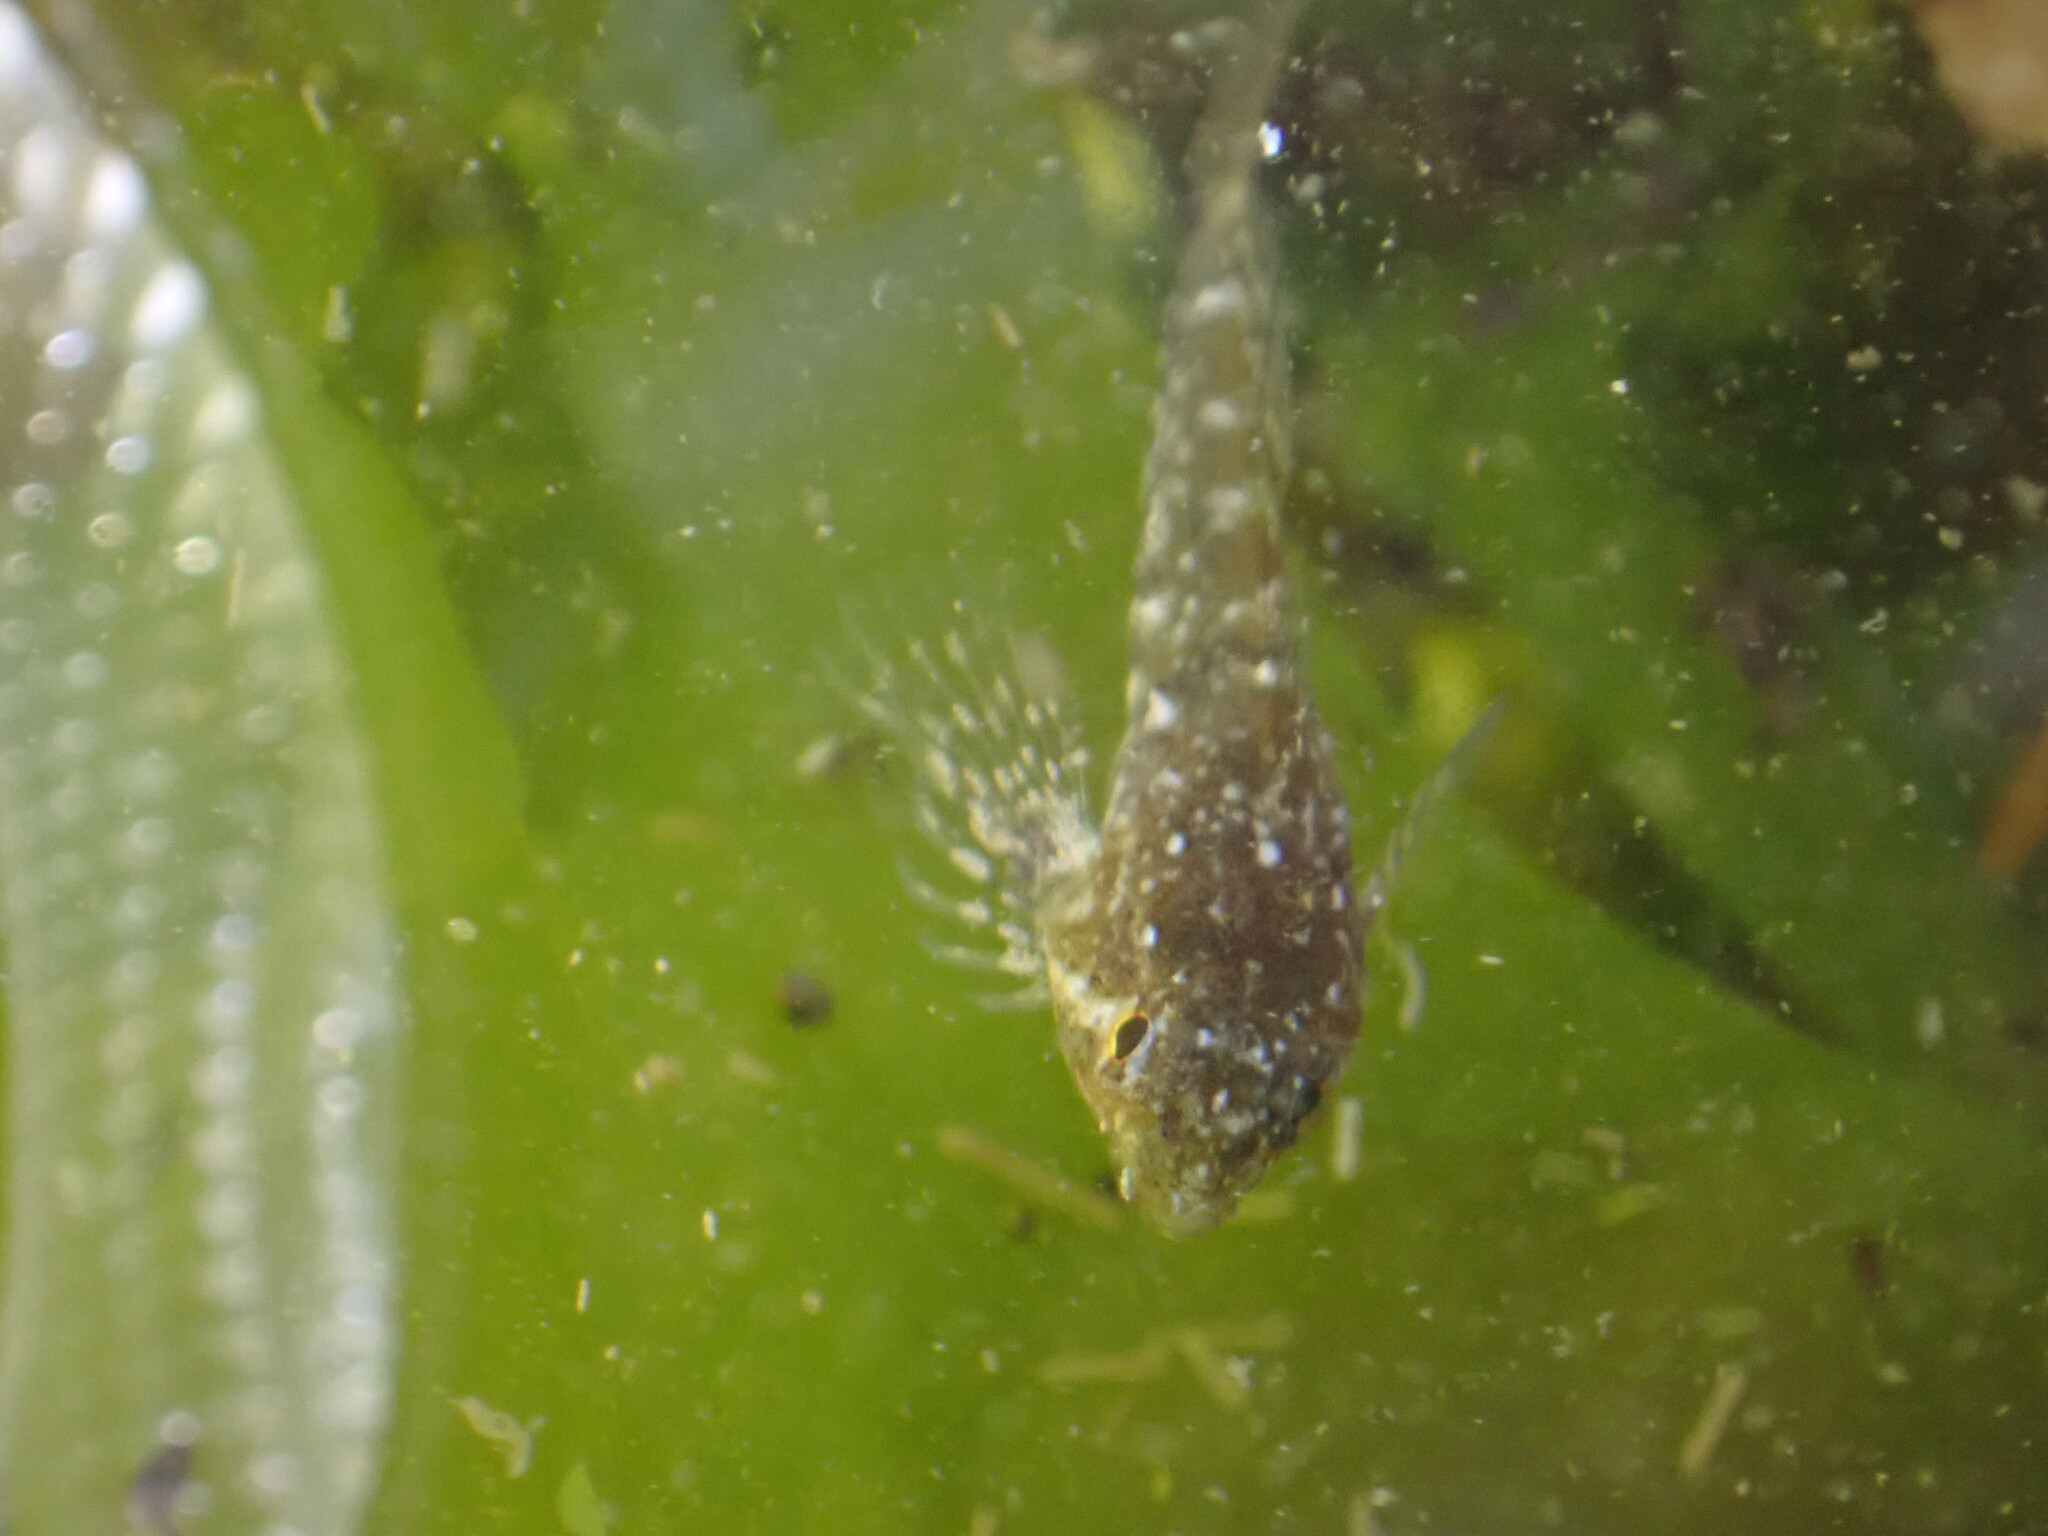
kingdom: Animalia
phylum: Chordata
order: Scorpaeniformes
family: Cottidae
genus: Oligocottus
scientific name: Oligocottus maculosus
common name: Tidepool sculpin
